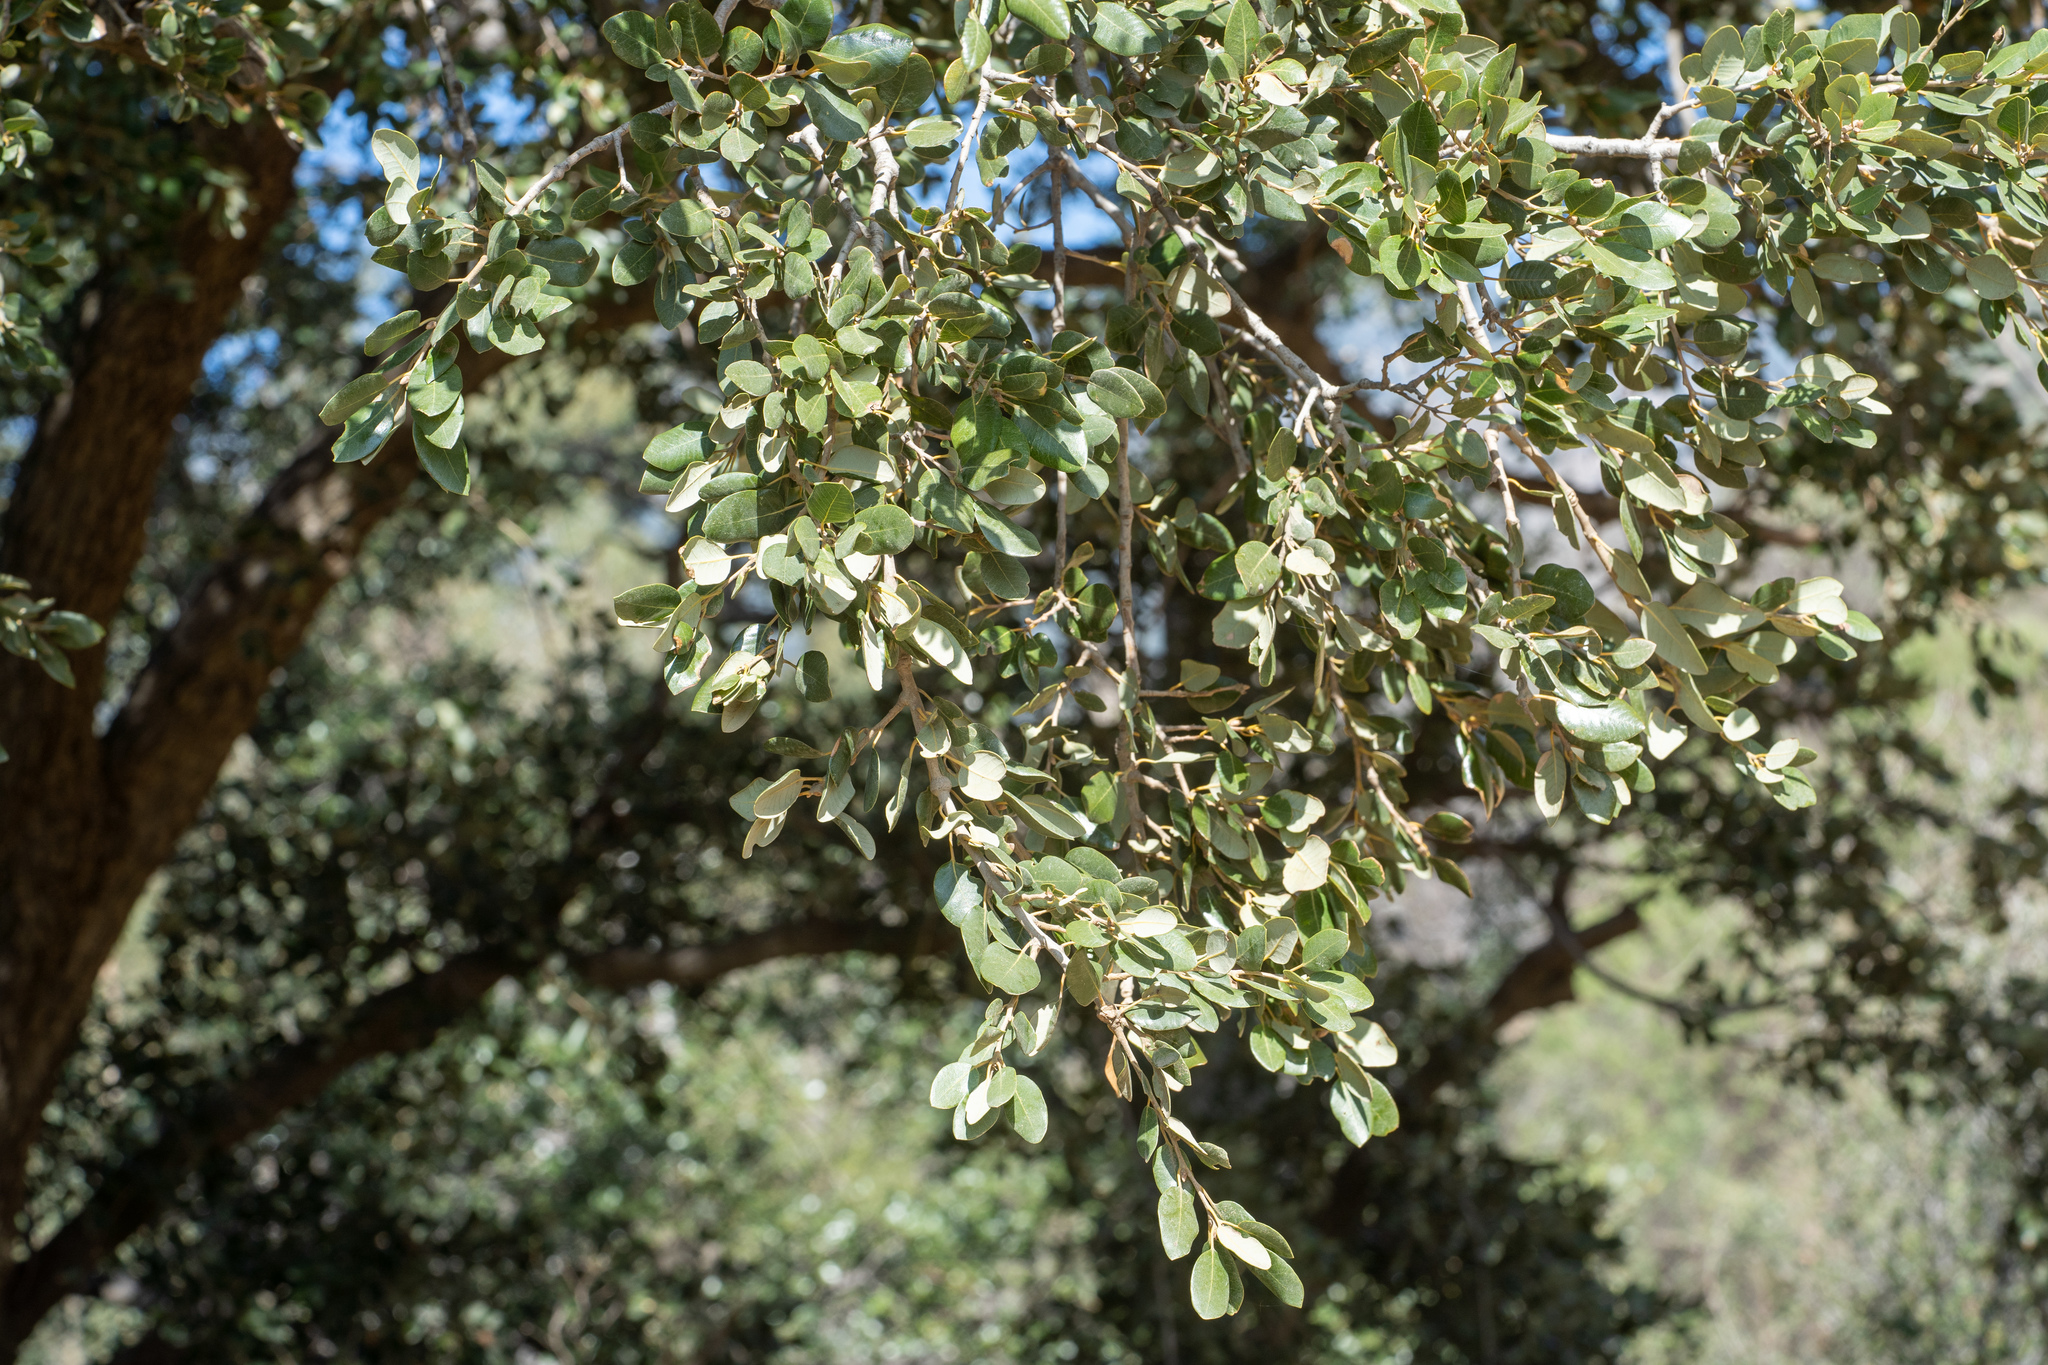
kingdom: Plantae
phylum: Tracheophyta
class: Magnoliopsida
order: Fagales
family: Fagaceae
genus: Quercus
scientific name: Quercus chrysolepis
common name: Canyon live oak
